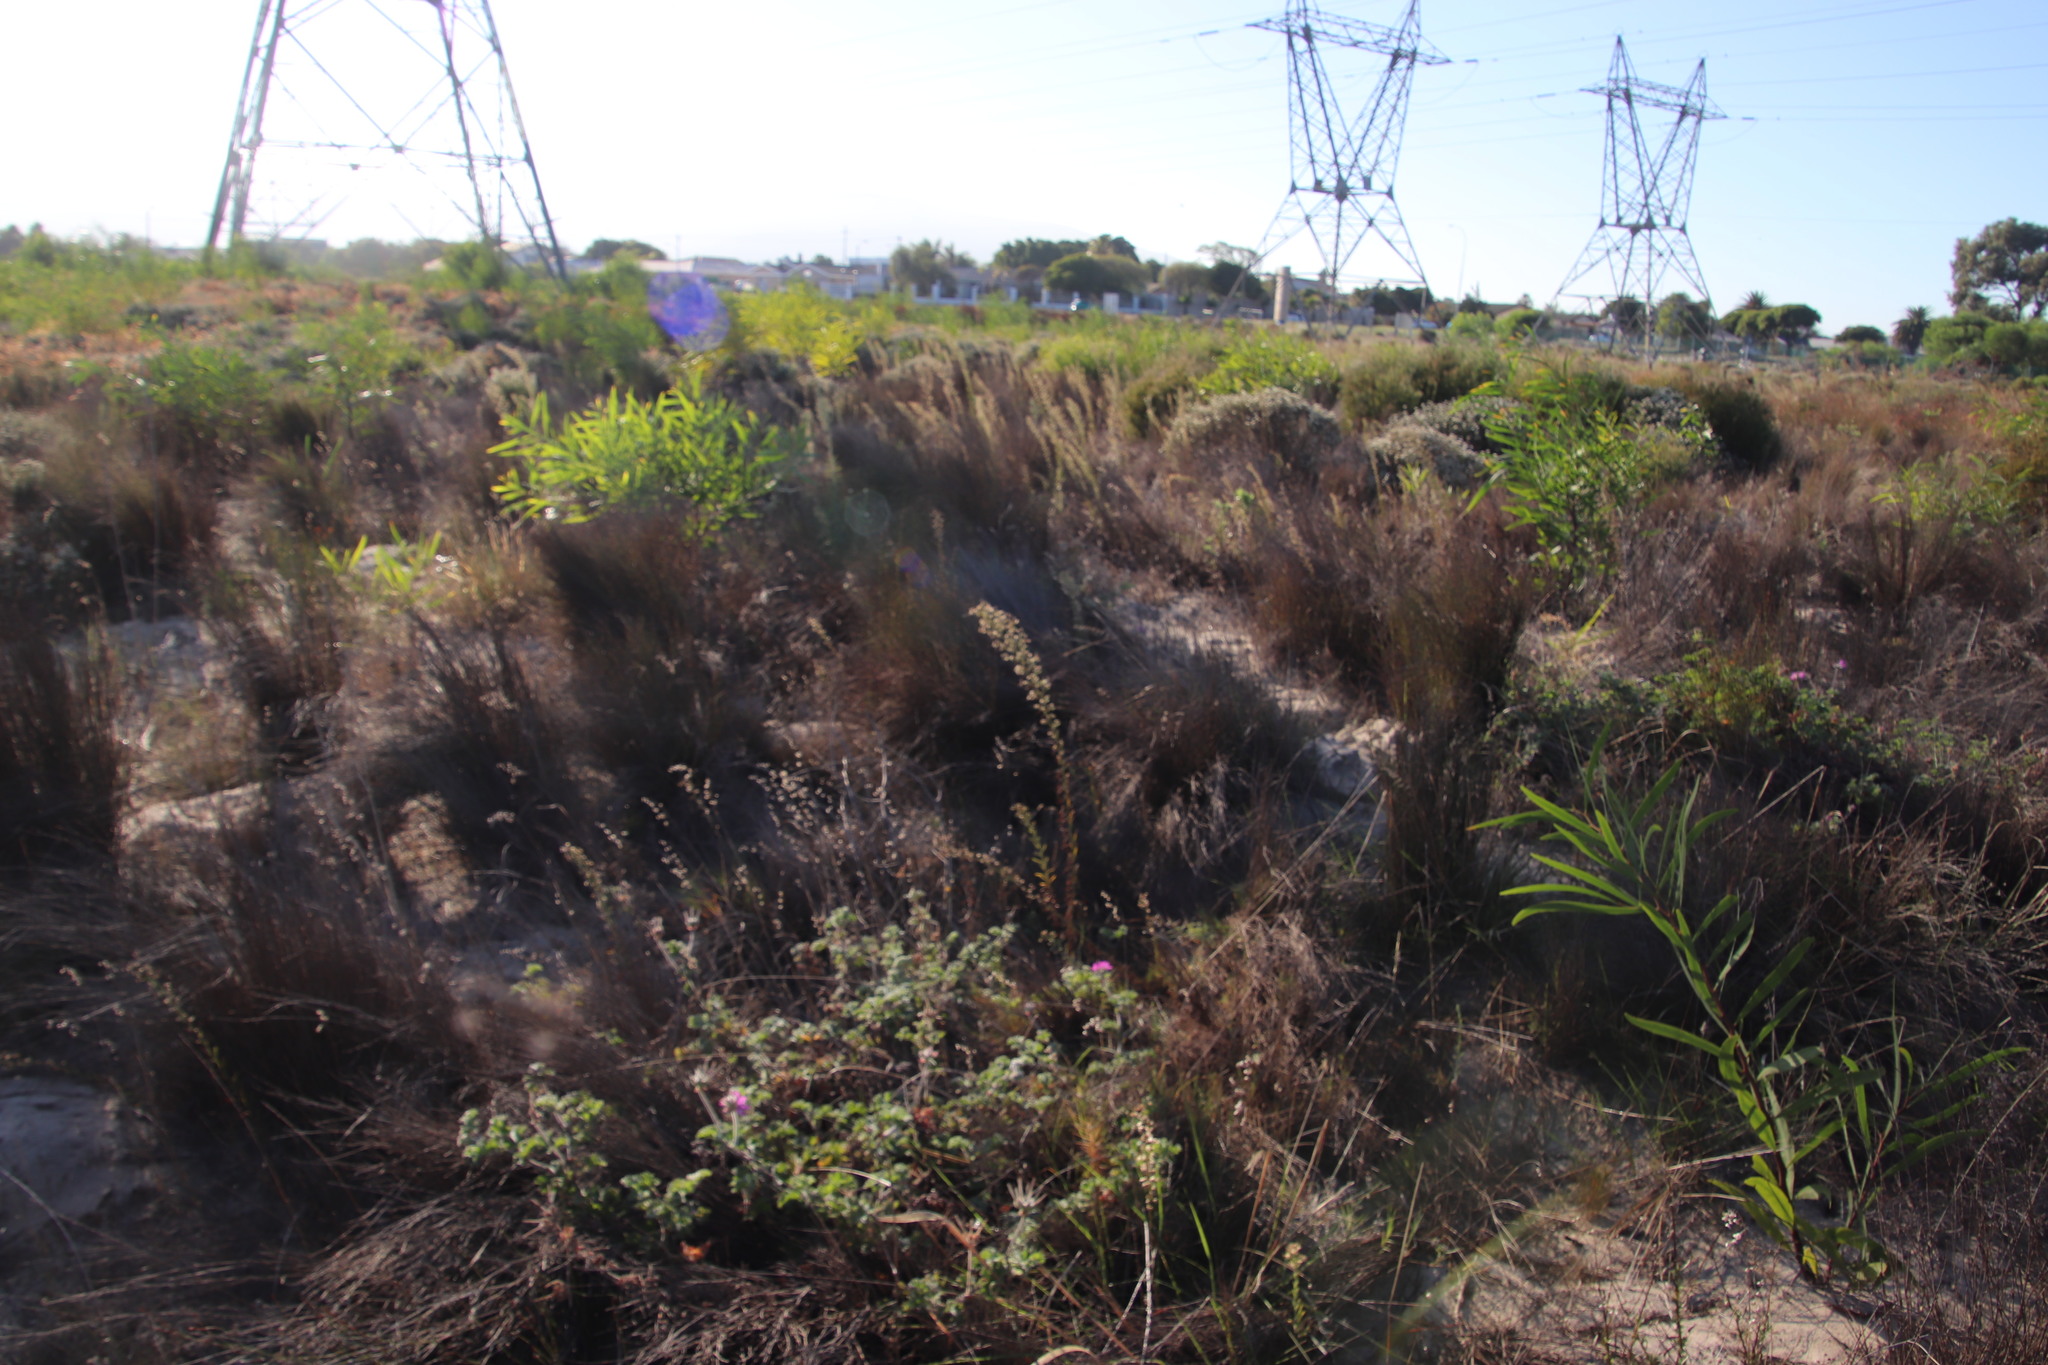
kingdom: Plantae
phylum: Tracheophyta
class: Magnoliopsida
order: Fabales
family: Fabaceae
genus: Acacia
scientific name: Acacia saligna
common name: Orange wattle
